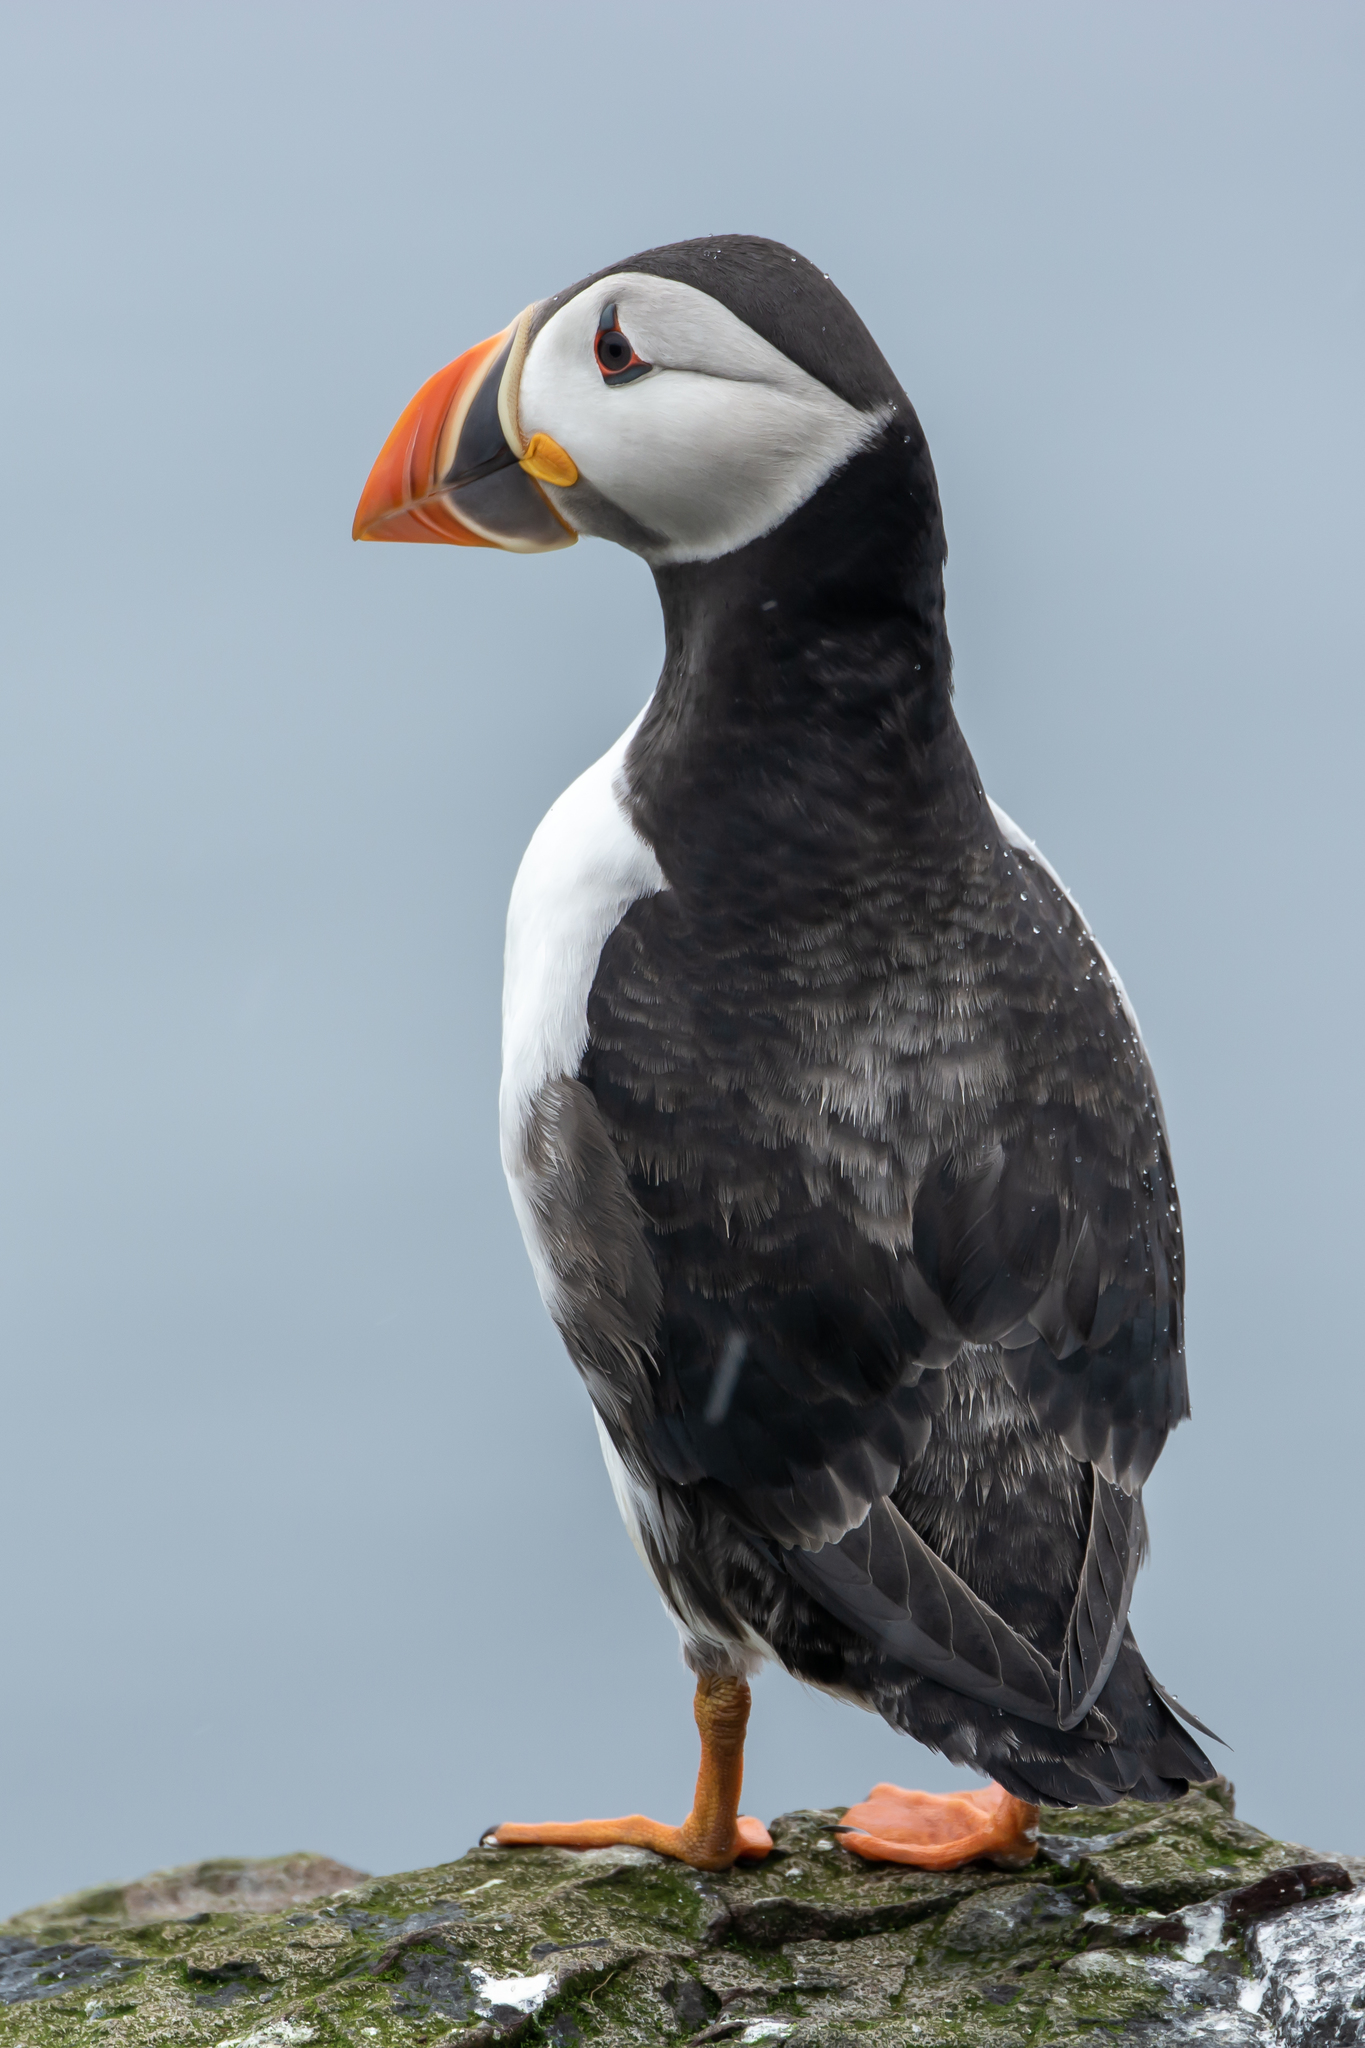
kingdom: Animalia
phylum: Chordata
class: Aves
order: Charadriiformes
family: Alcidae
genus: Fratercula
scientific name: Fratercula arctica
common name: Atlantic puffin
